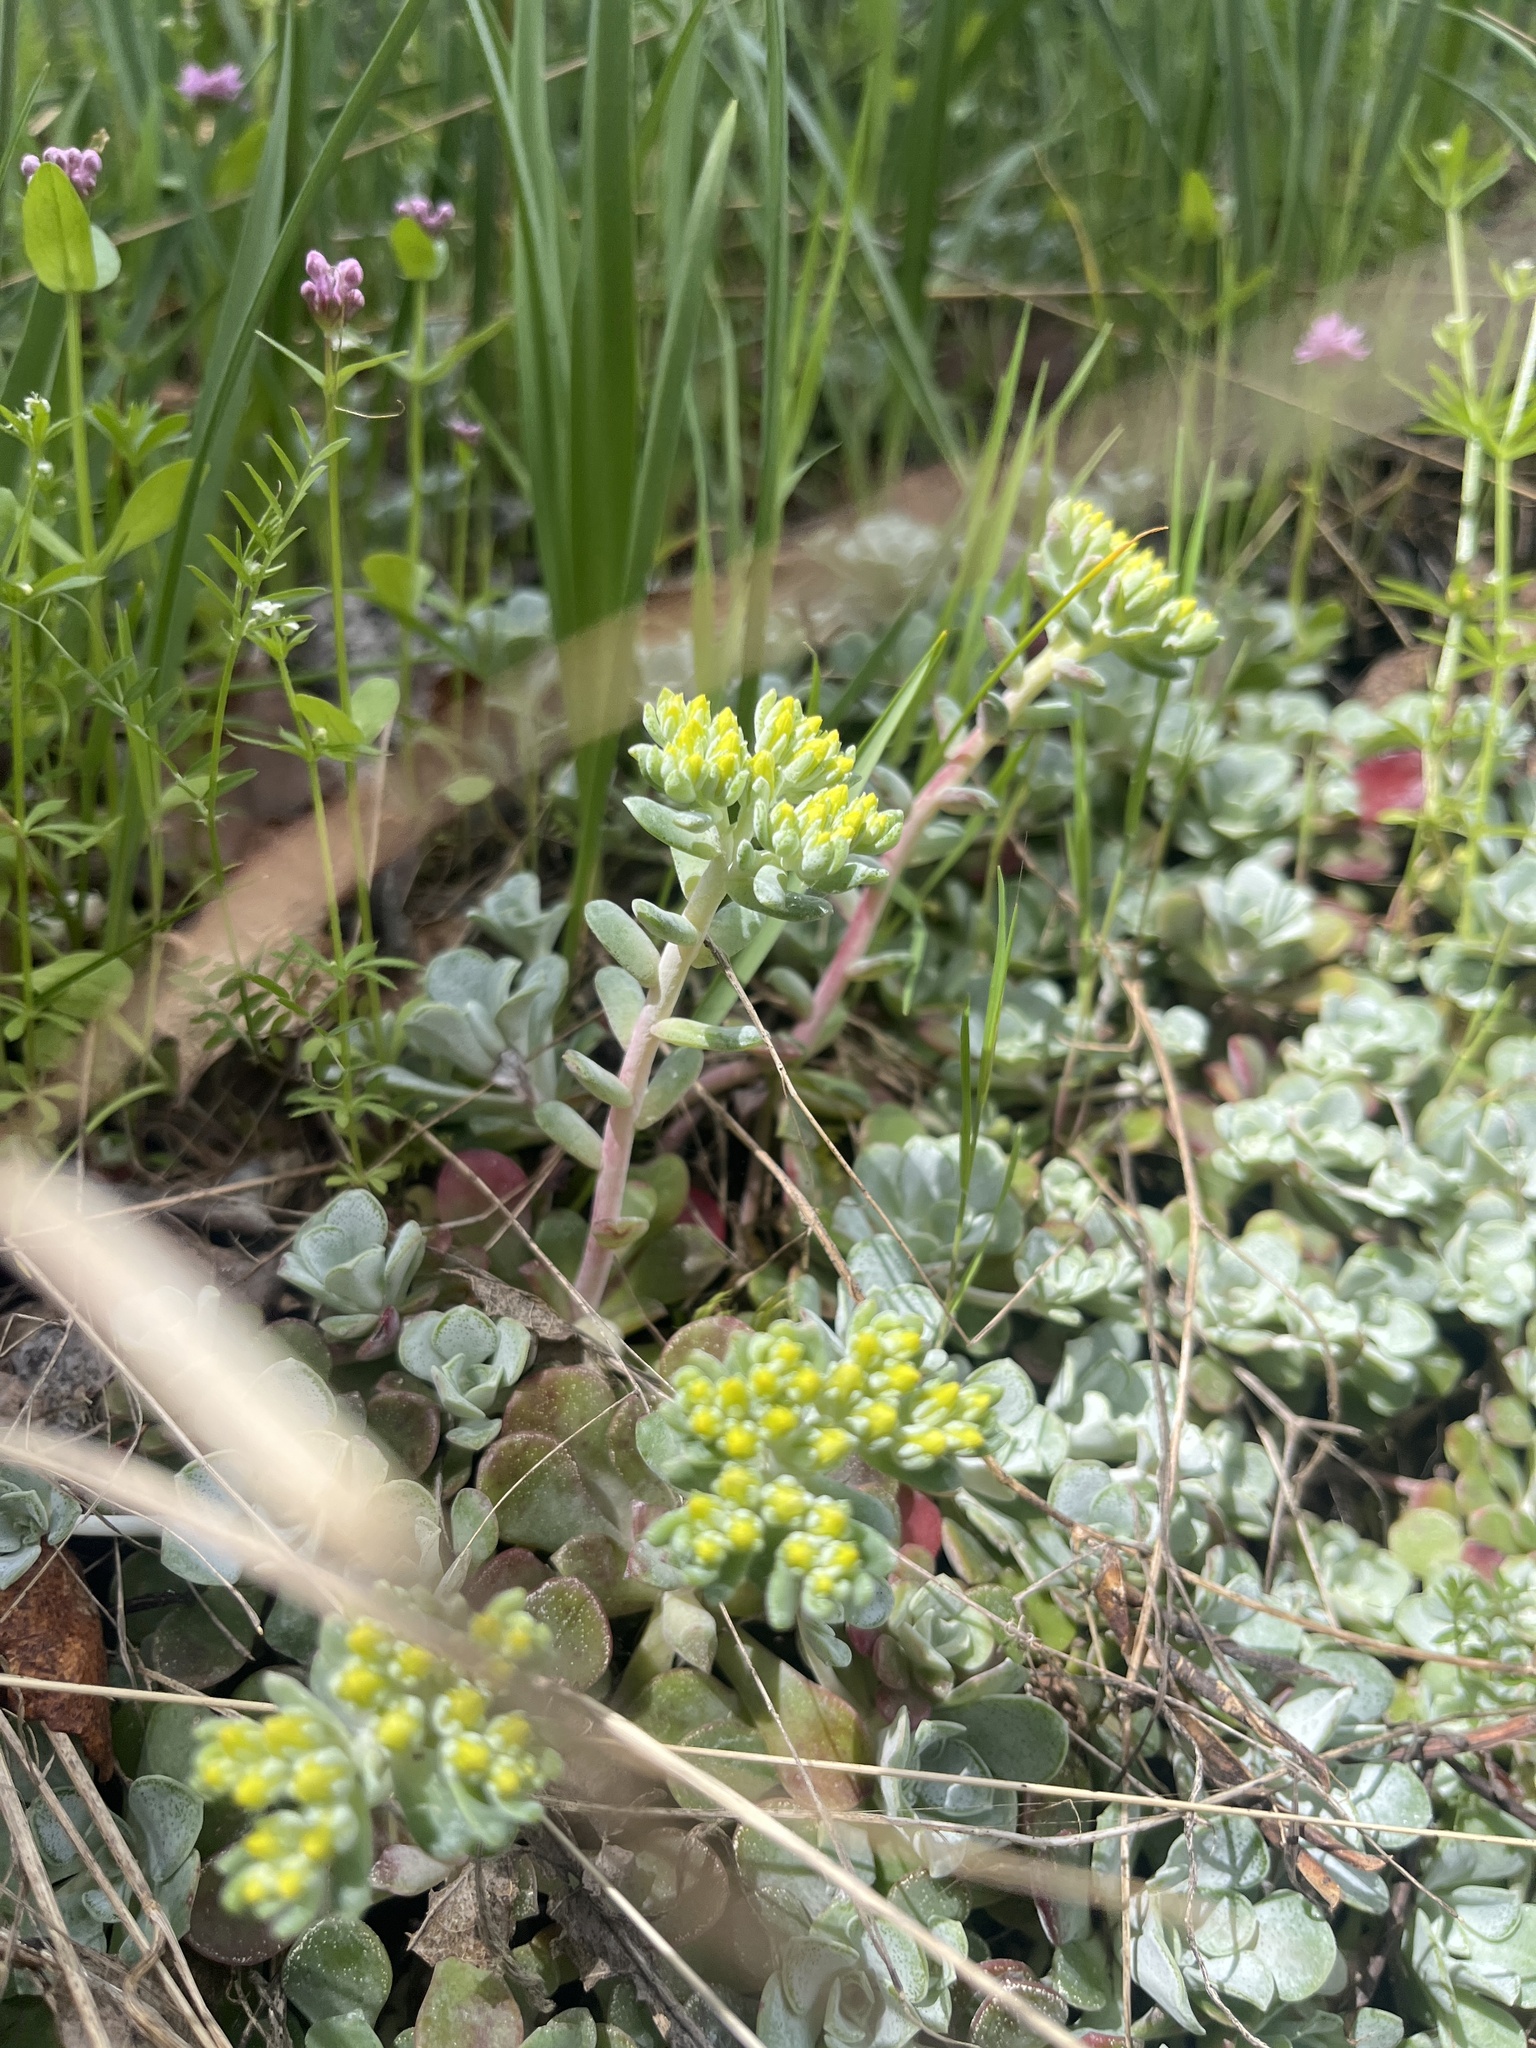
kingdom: Plantae
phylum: Tracheophyta
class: Magnoliopsida
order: Saxifragales
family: Crassulaceae
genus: Sedum
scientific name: Sedum spathulifolium
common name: Colorado stonecrop
